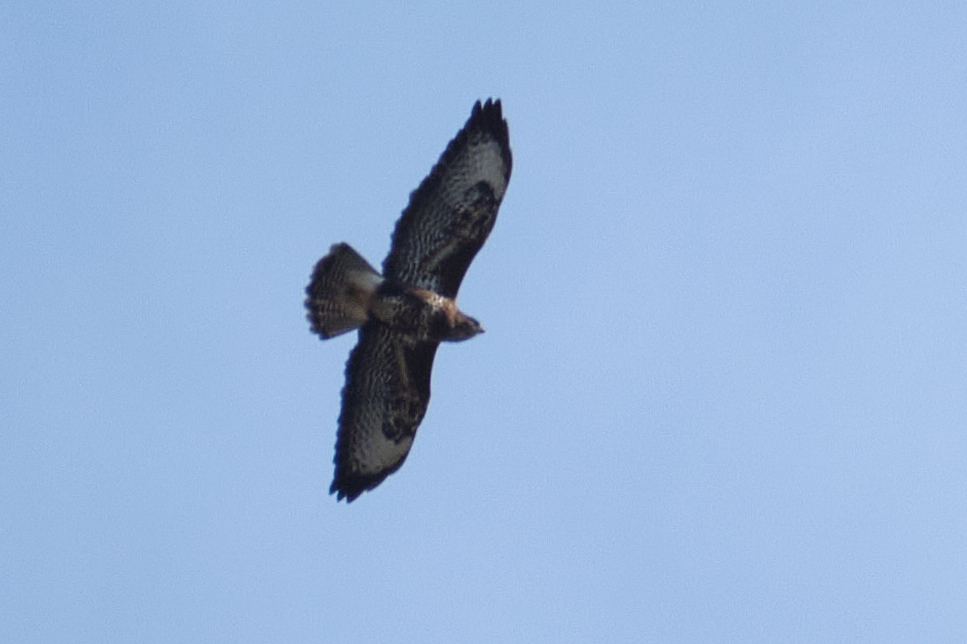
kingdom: Animalia
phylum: Chordata
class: Aves
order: Accipitriformes
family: Accipitridae
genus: Buteo
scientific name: Buteo buteo
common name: Common buzzard
